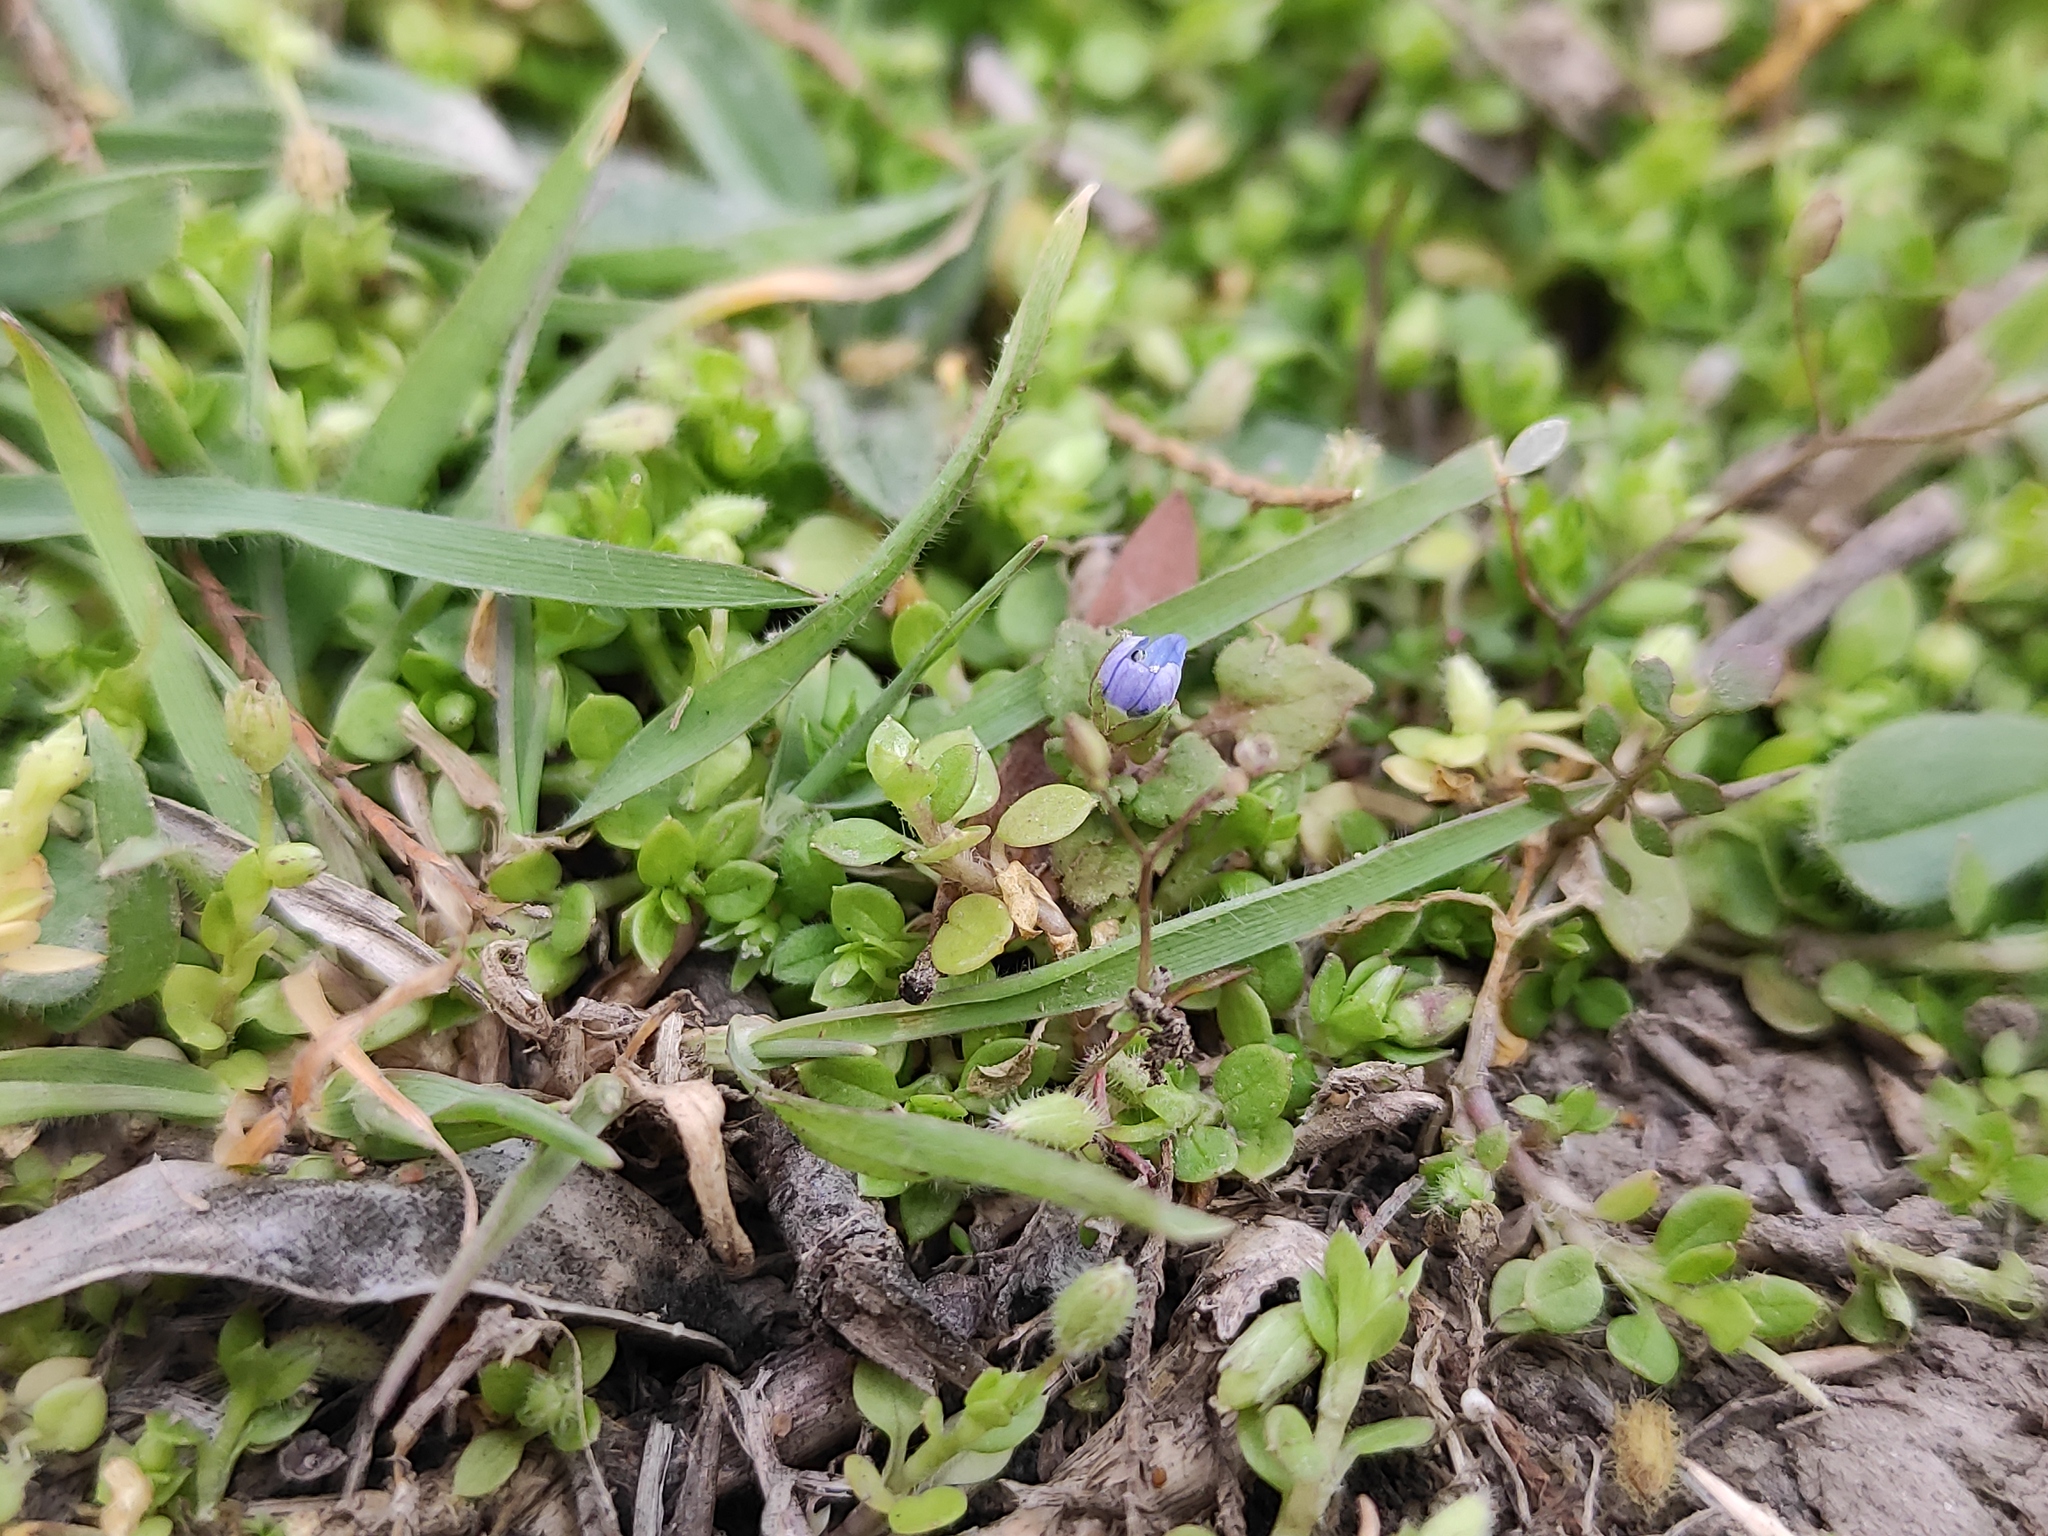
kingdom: Plantae
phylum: Tracheophyta
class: Magnoliopsida
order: Lamiales
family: Plantaginaceae
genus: Veronica
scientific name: Veronica polita
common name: Grey field-speedwell
